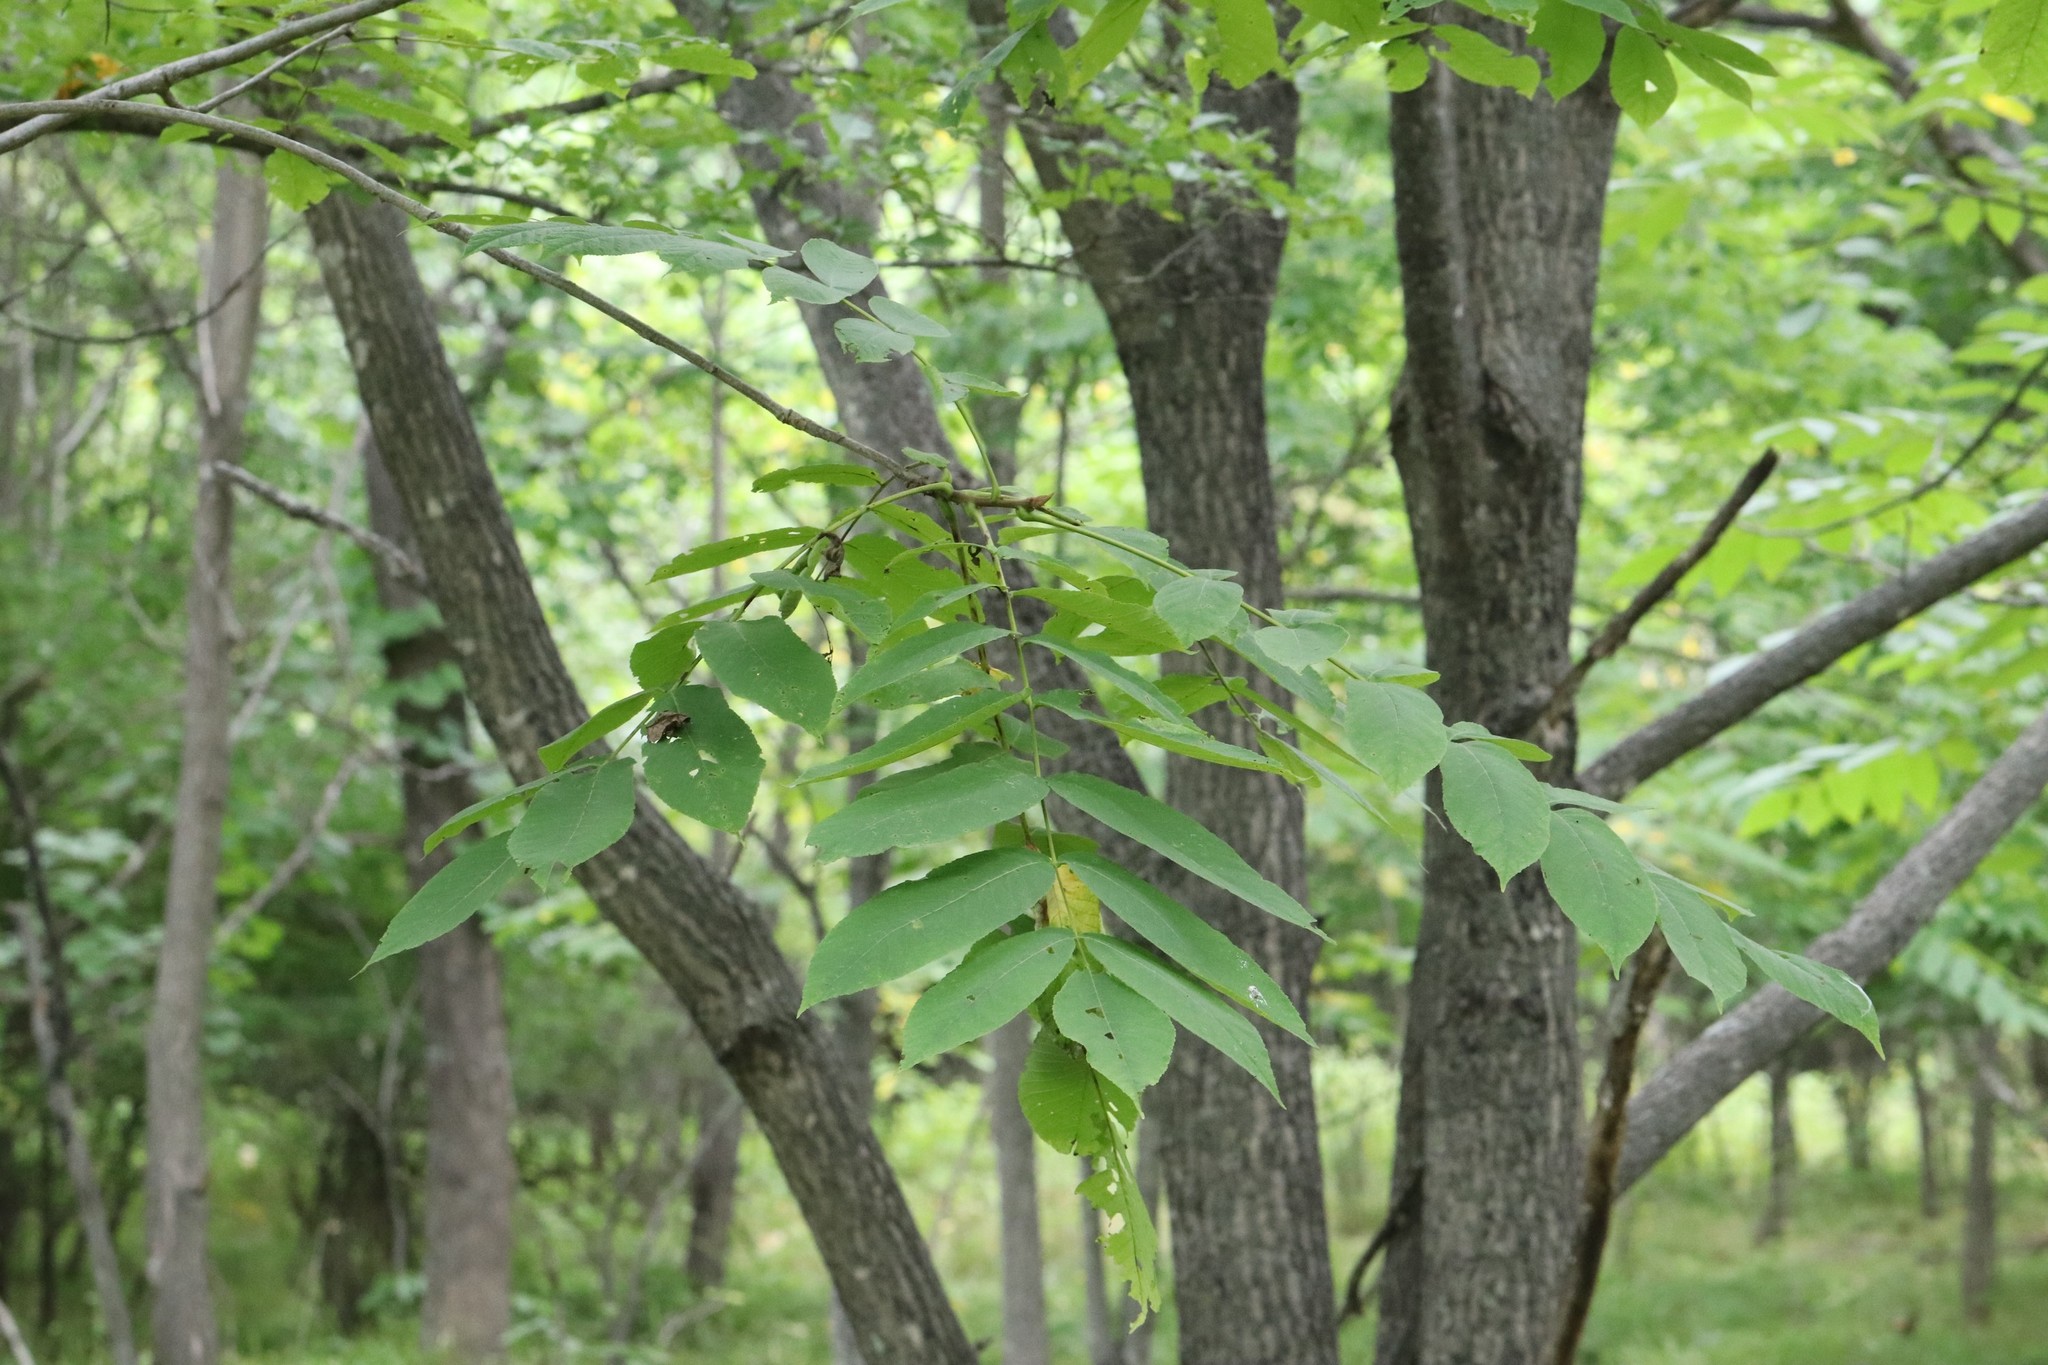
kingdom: Plantae
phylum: Tracheophyta
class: Magnoliopsida
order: Fagales
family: Juglandaceae
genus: Juglans
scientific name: Juglans mandshurica
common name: Manchurian walnut
